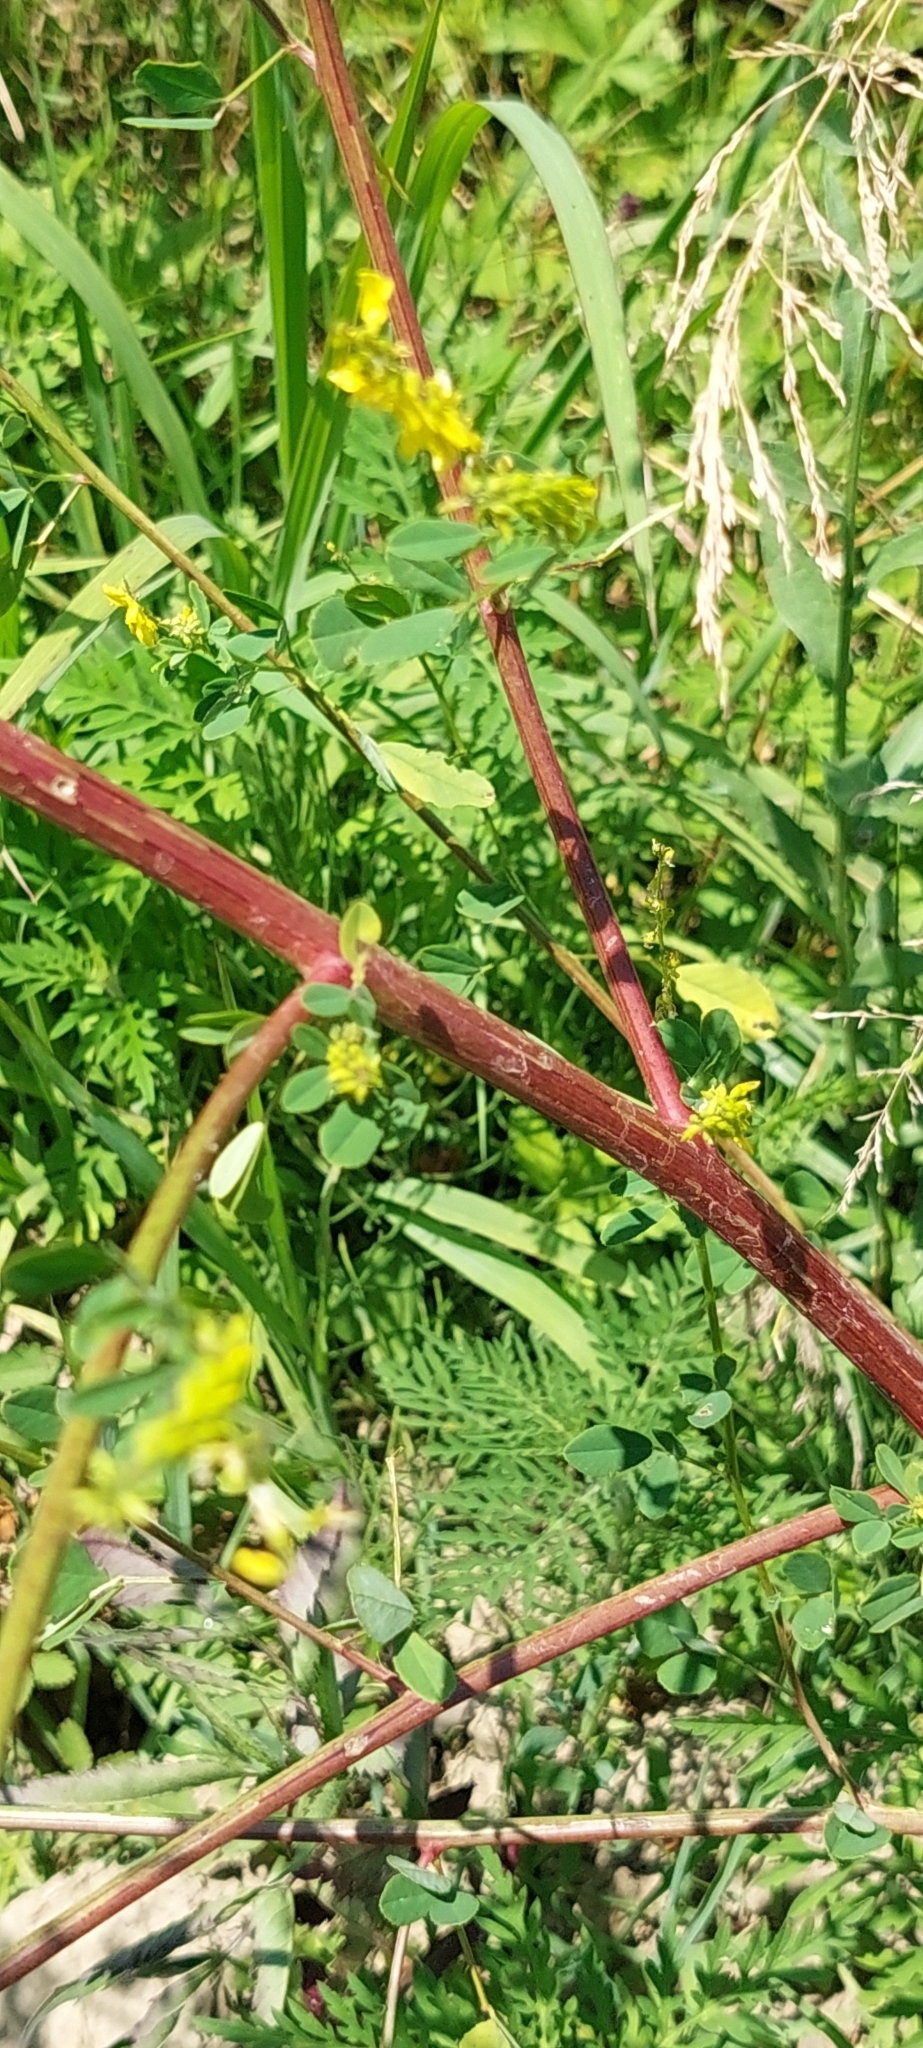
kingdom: Plantae
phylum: Tracheophyta
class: Magnoliopsida
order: Fabales
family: Fabaceae
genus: Melilotus
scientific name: Melilotus officinalis
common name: Sweetclover
